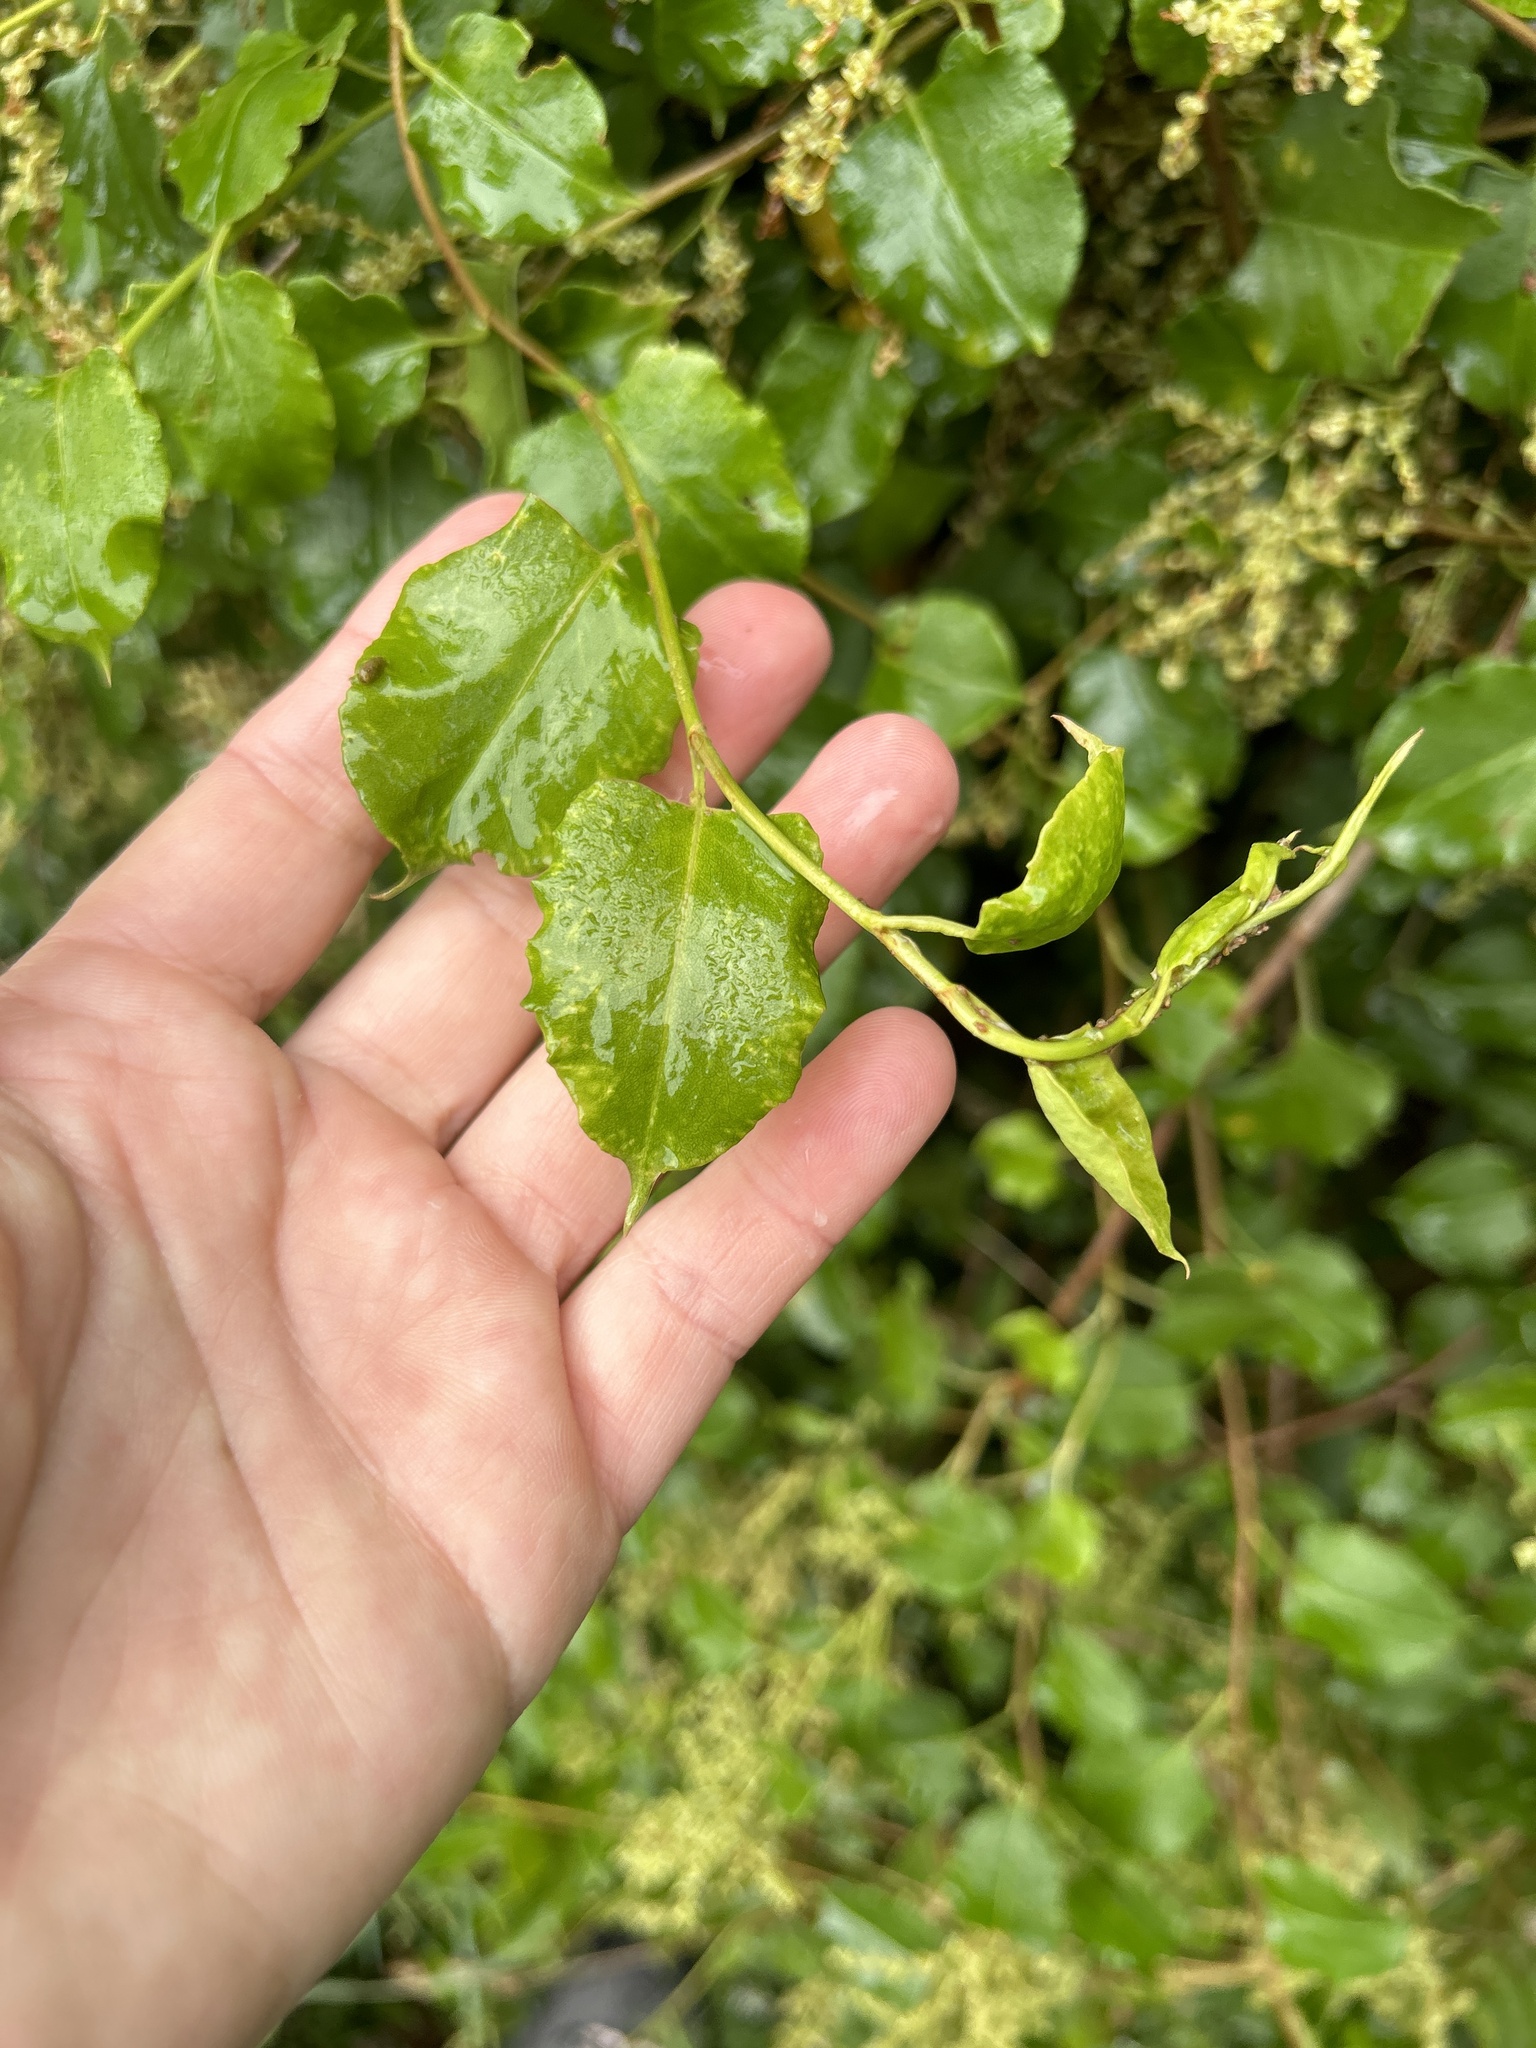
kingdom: Plantae
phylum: Tracheophyta
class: Magnoliopsida
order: Caryophyllales
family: Polygonaceae
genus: Muehlenbeckia
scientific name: Muehlenbeckia australis
